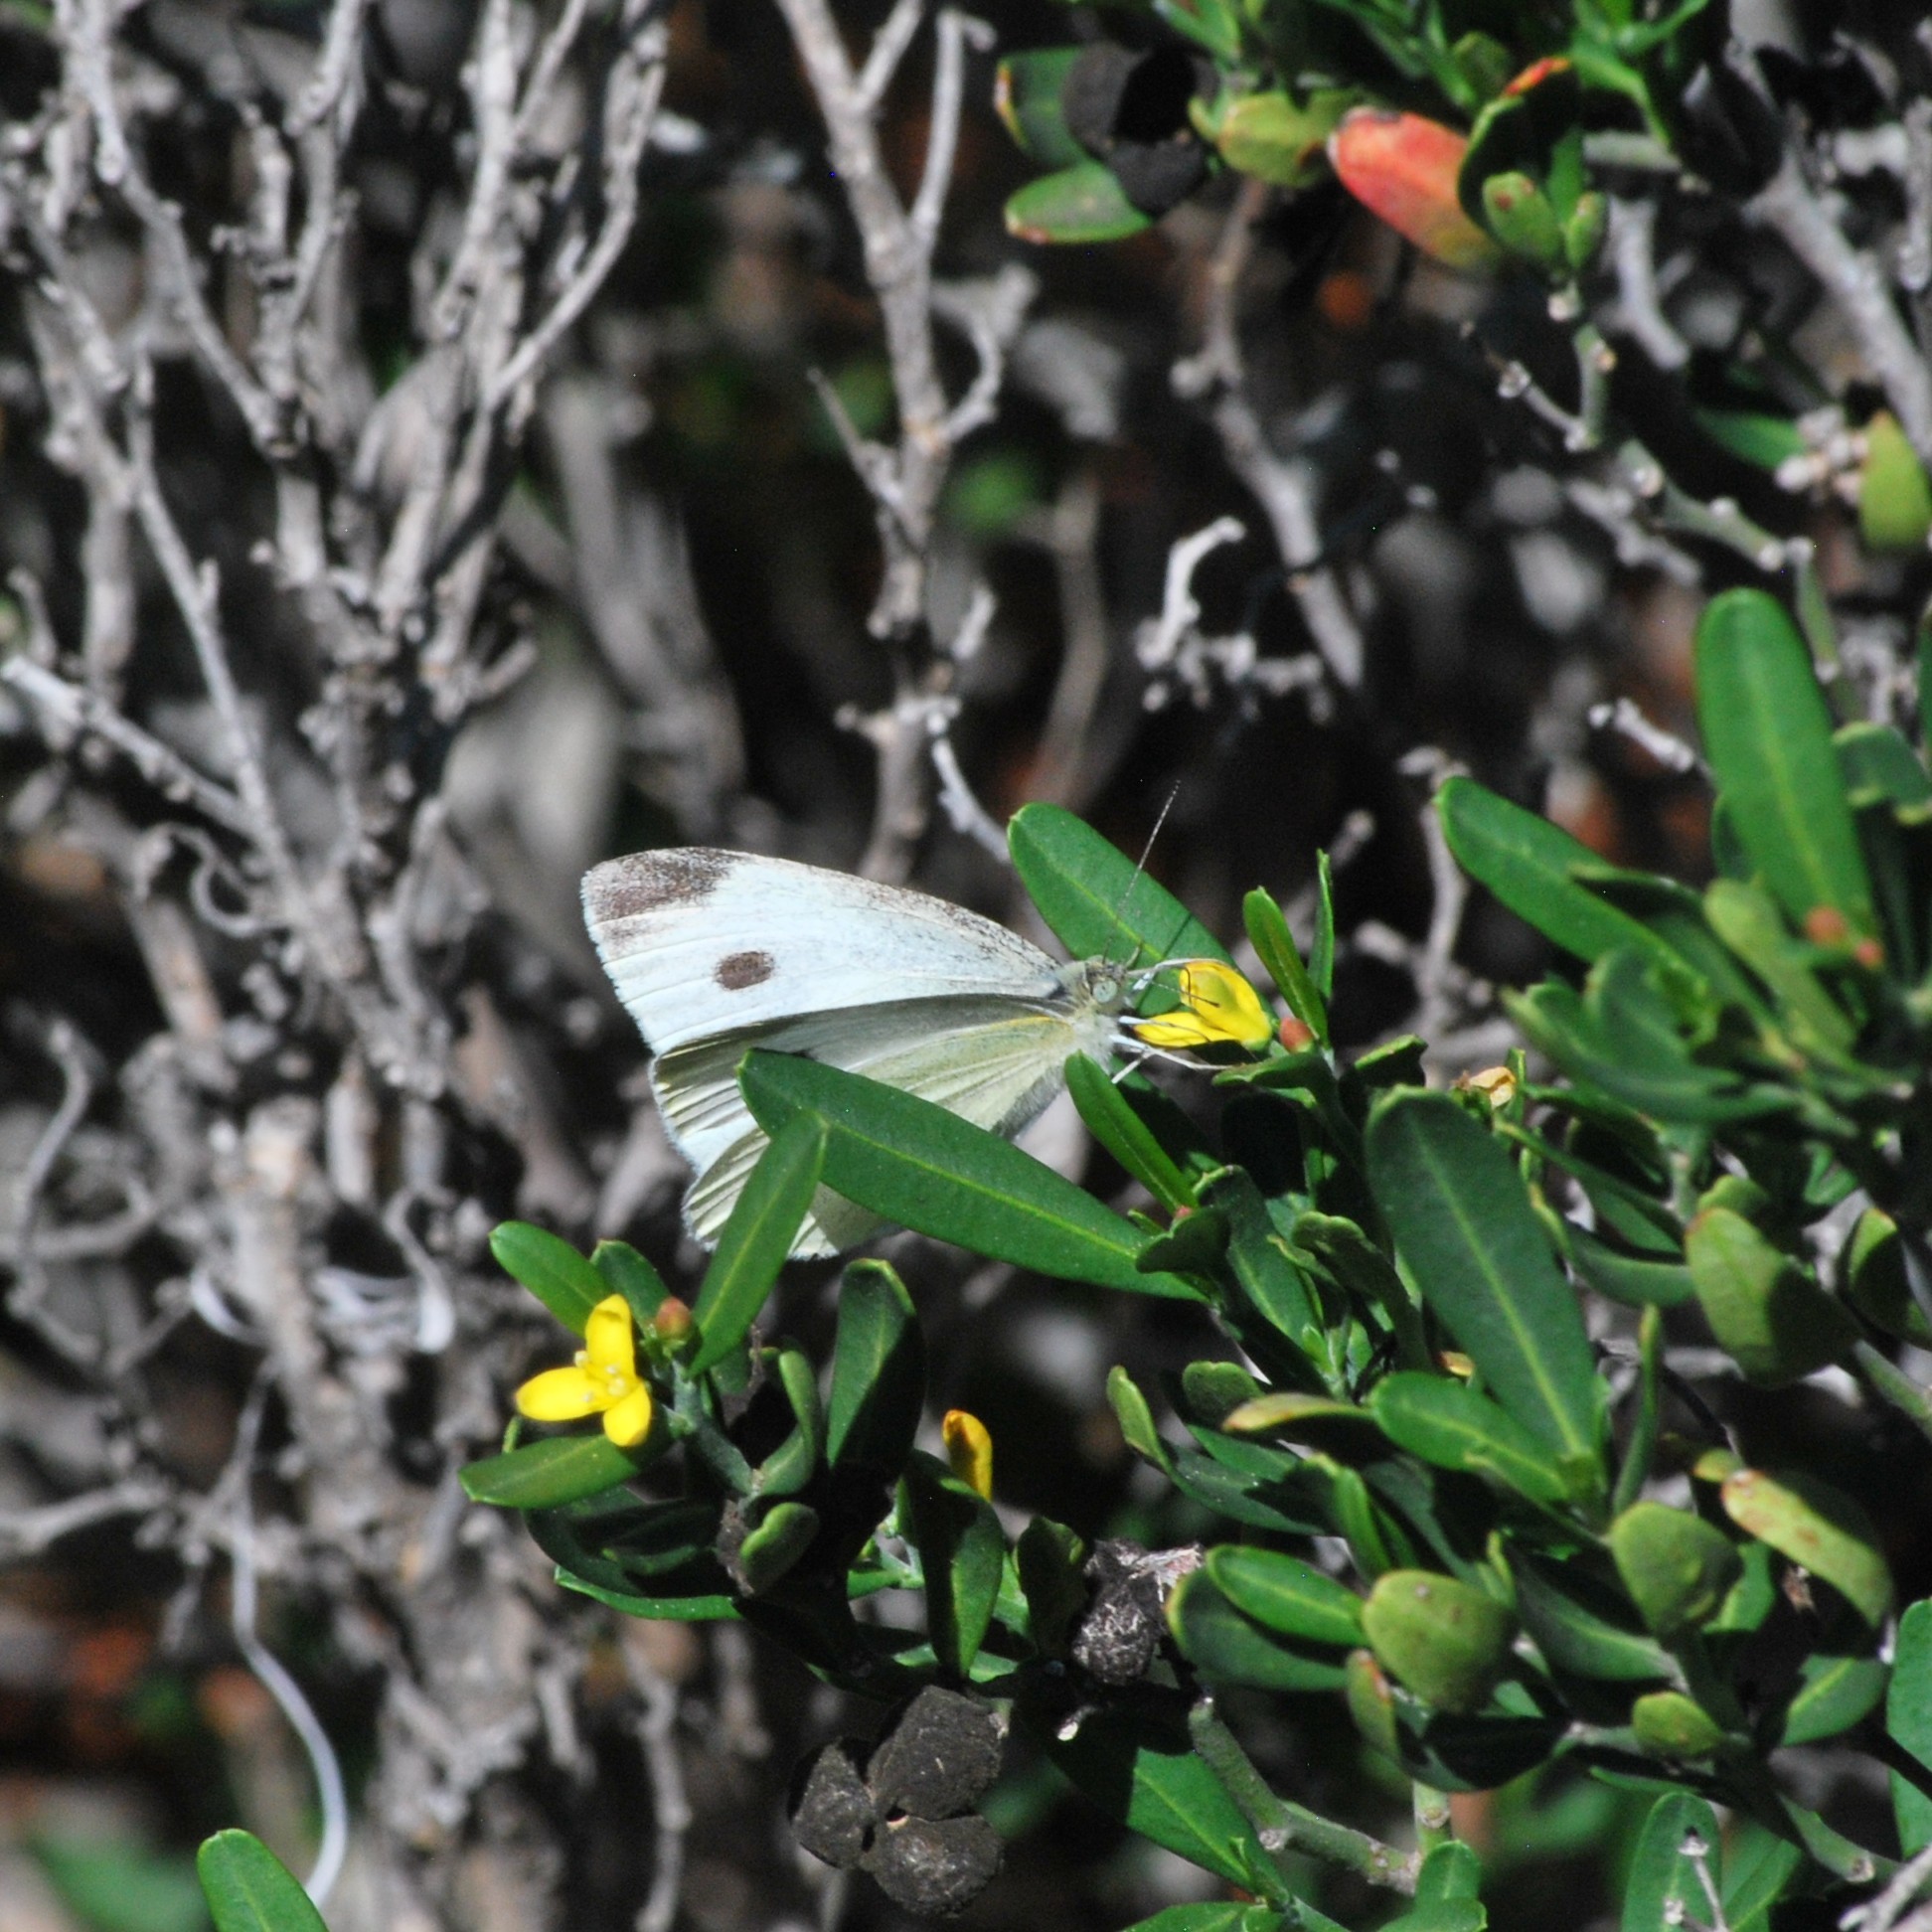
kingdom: Animalia
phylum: Arthropoda
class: Insecta
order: Lepidoptera
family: Pieridae
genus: Pieris
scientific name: Pieris rapae
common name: Small white
